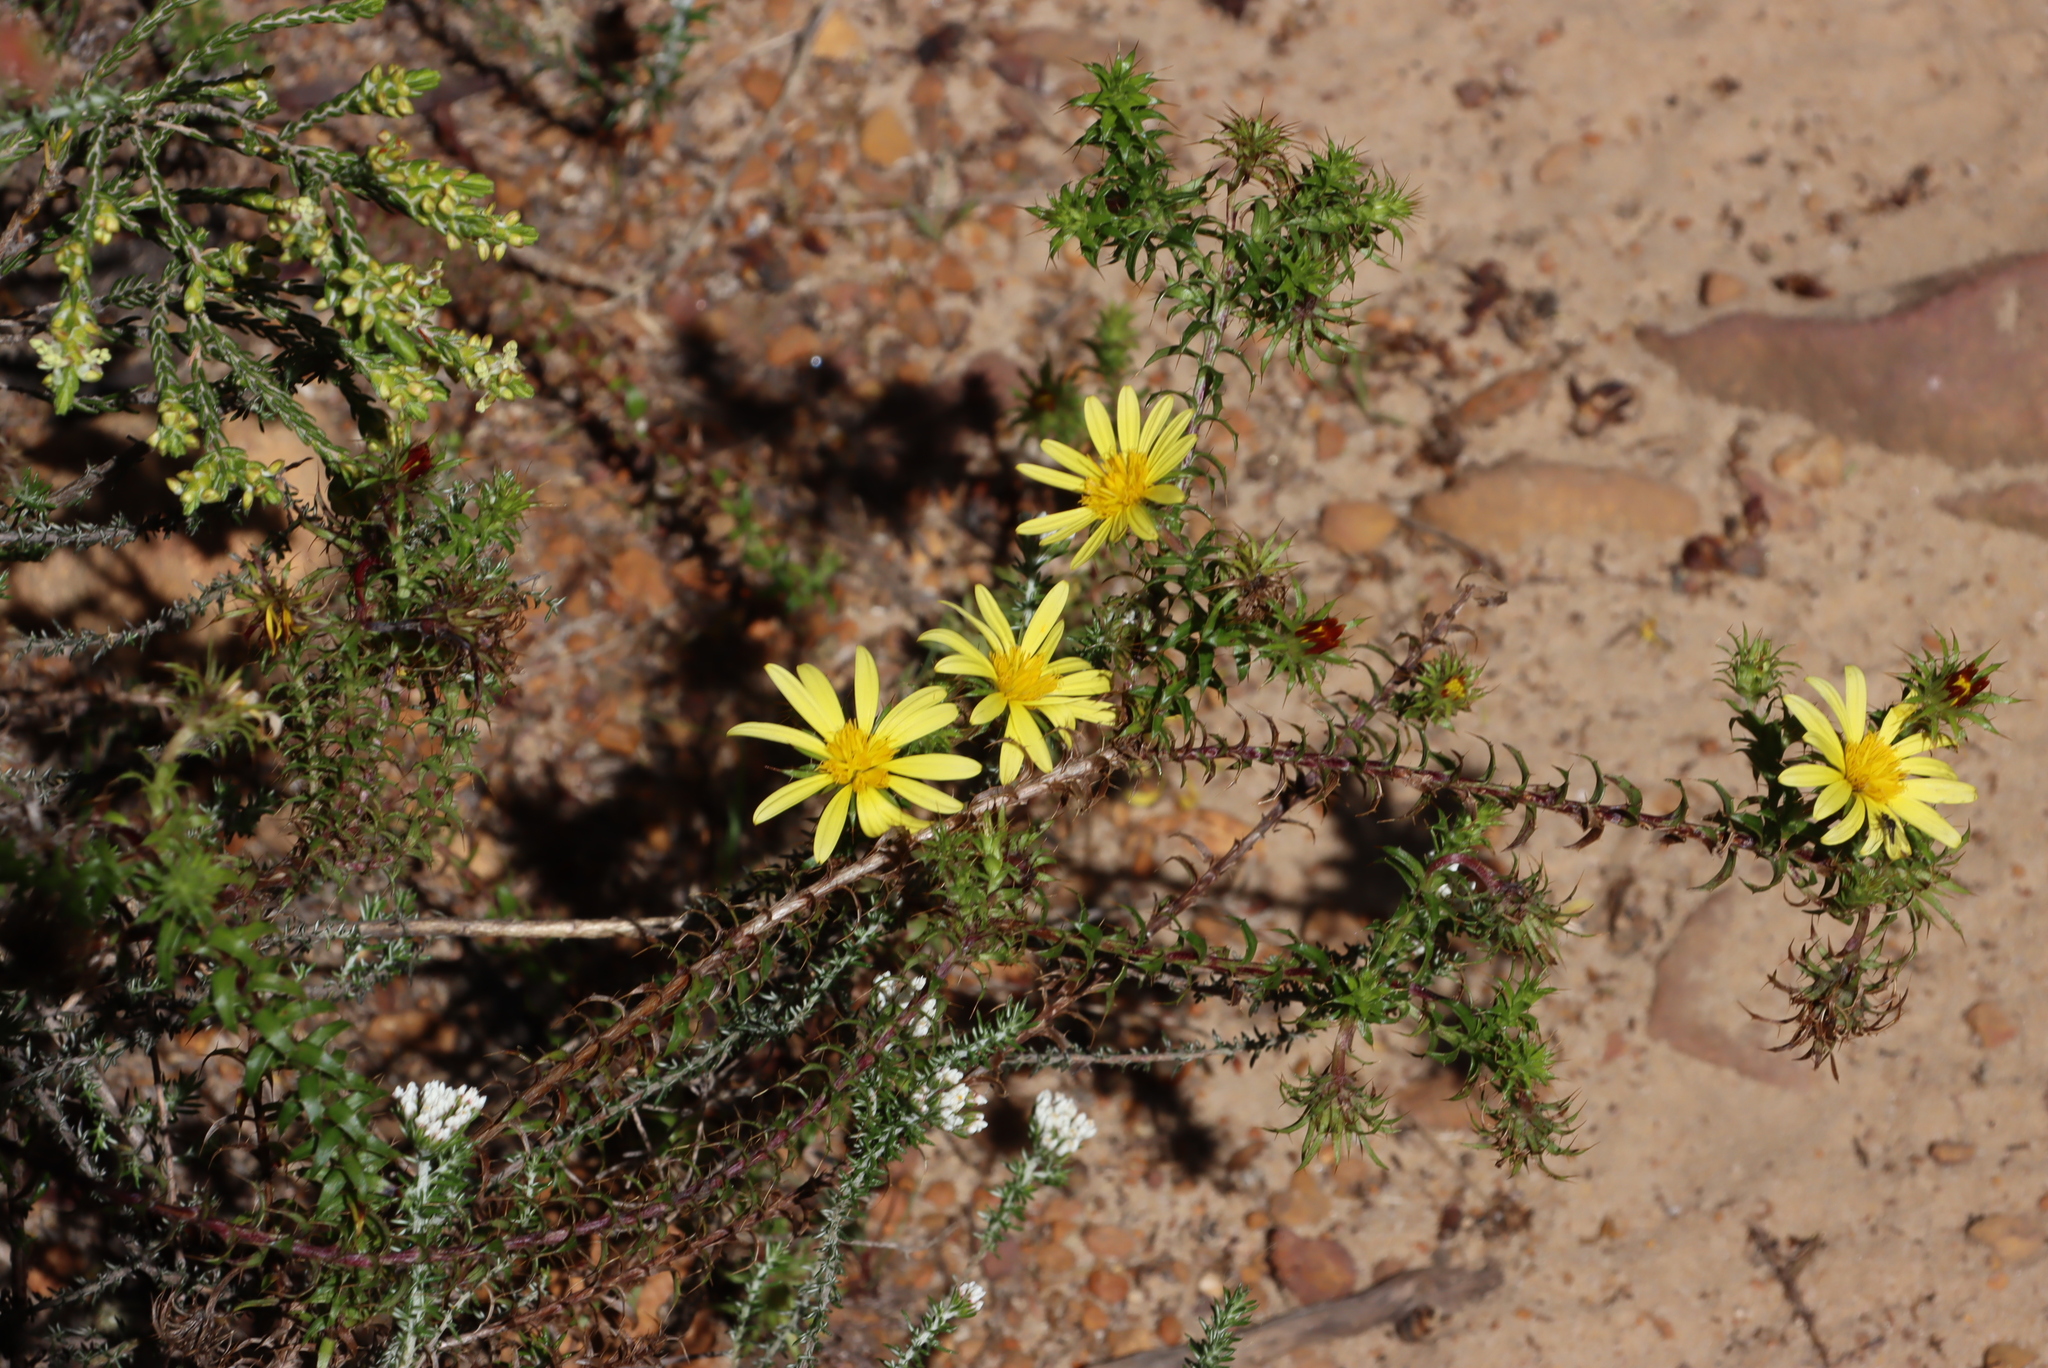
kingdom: Plantae
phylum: Tracheophyta
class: Magnoliopsida
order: Asterales
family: Asteraceae
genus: Cullumia
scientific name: Cullumia setosa
